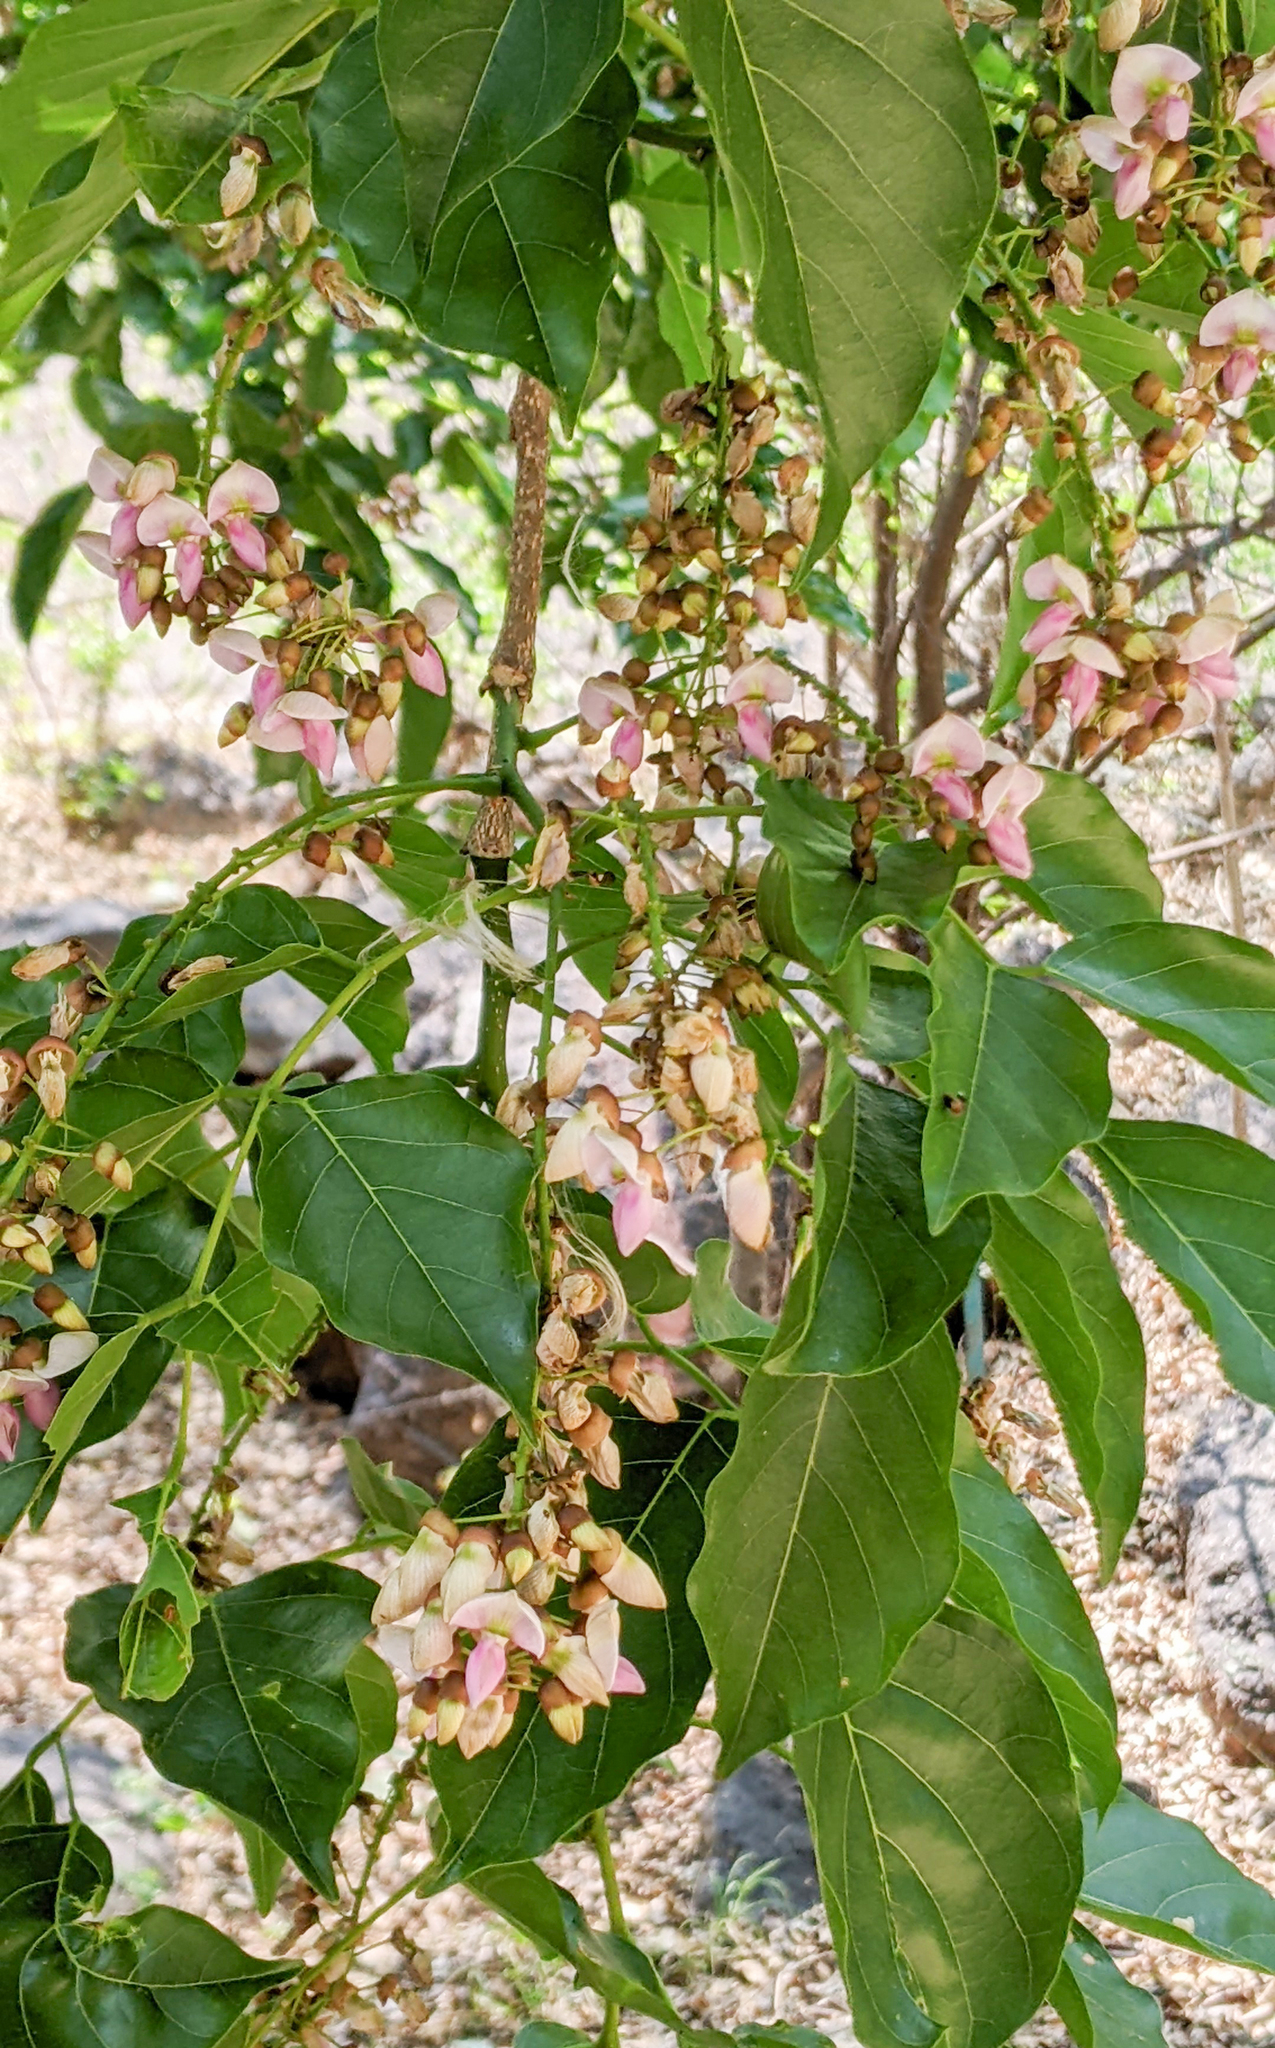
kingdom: Plantae
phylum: Tracheophyta
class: Magnoliopsida
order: Fabales
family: Fabaceae
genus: Pongamia
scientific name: Pongamia pinnata
